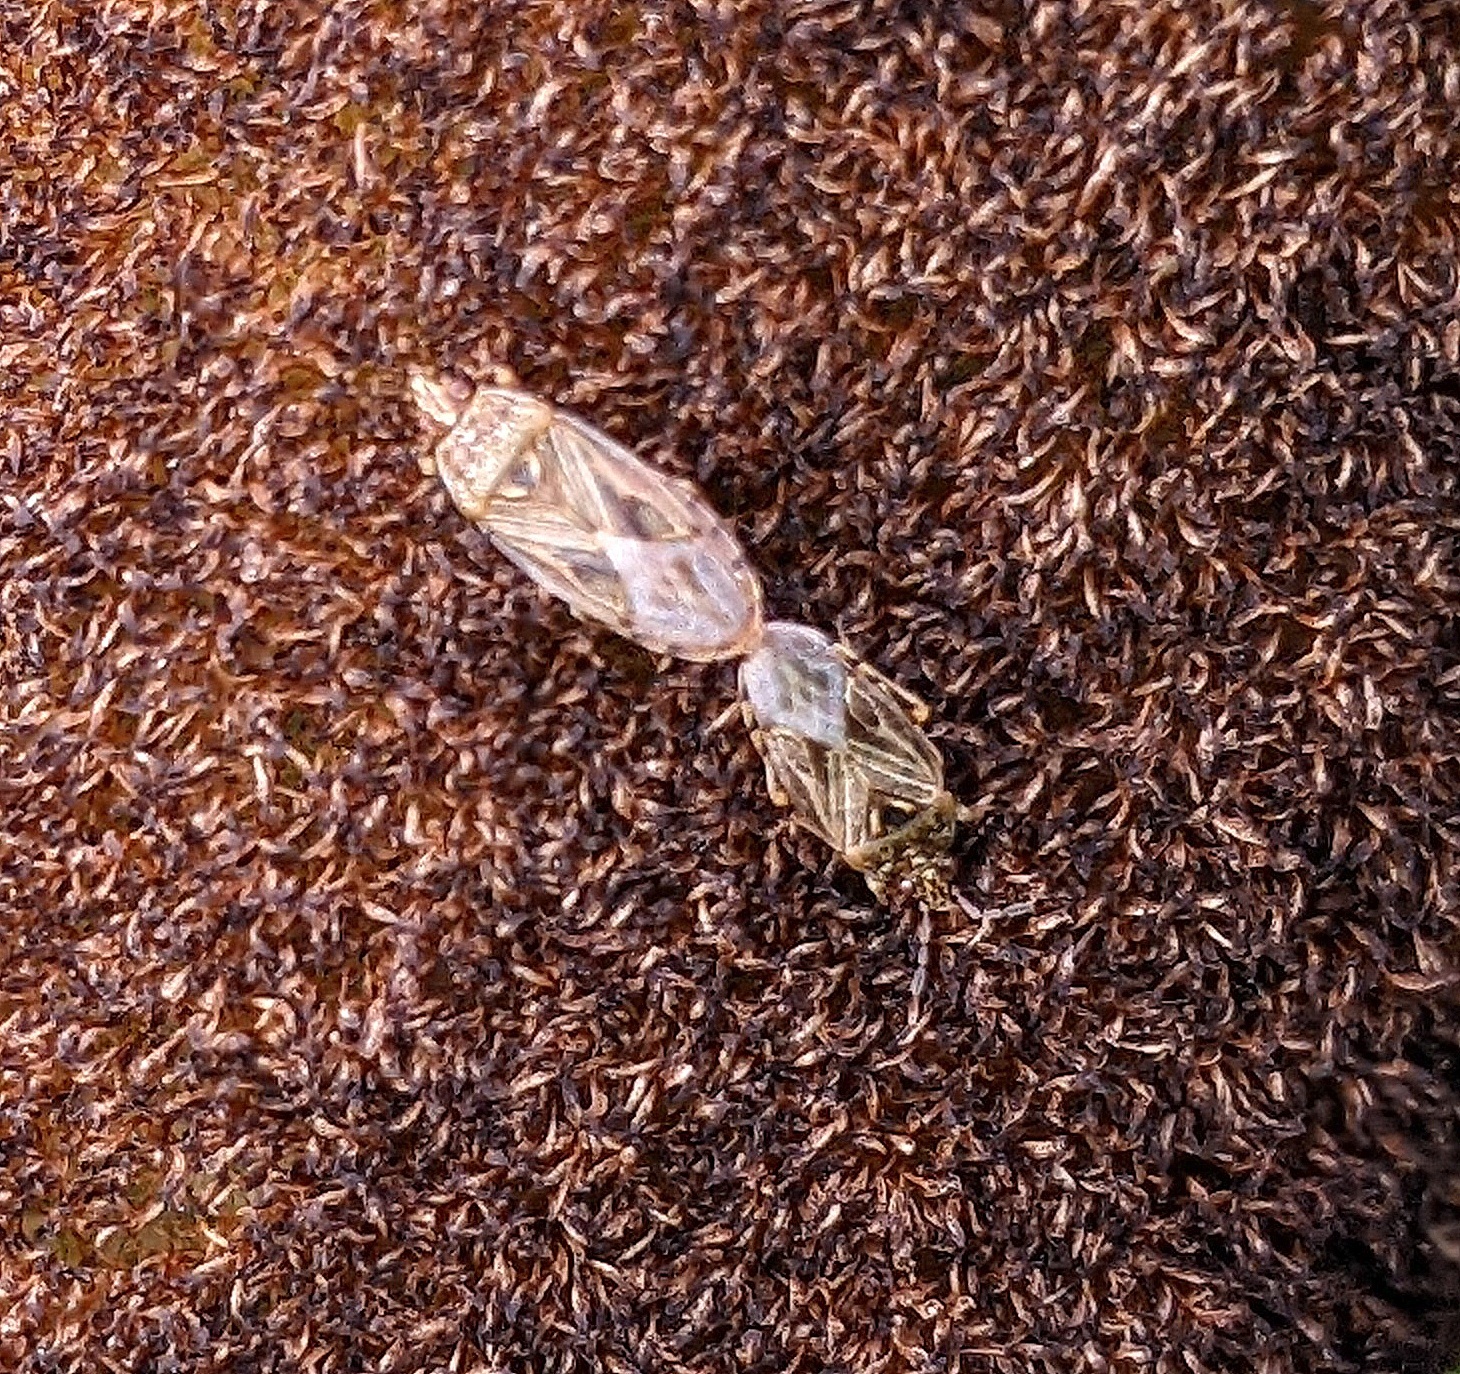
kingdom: Animalia
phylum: Arthropoda
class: Insecta
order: Hemiptera
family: Artheneidae
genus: Chilacis
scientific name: Chilacis typhae
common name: Cattail bug
